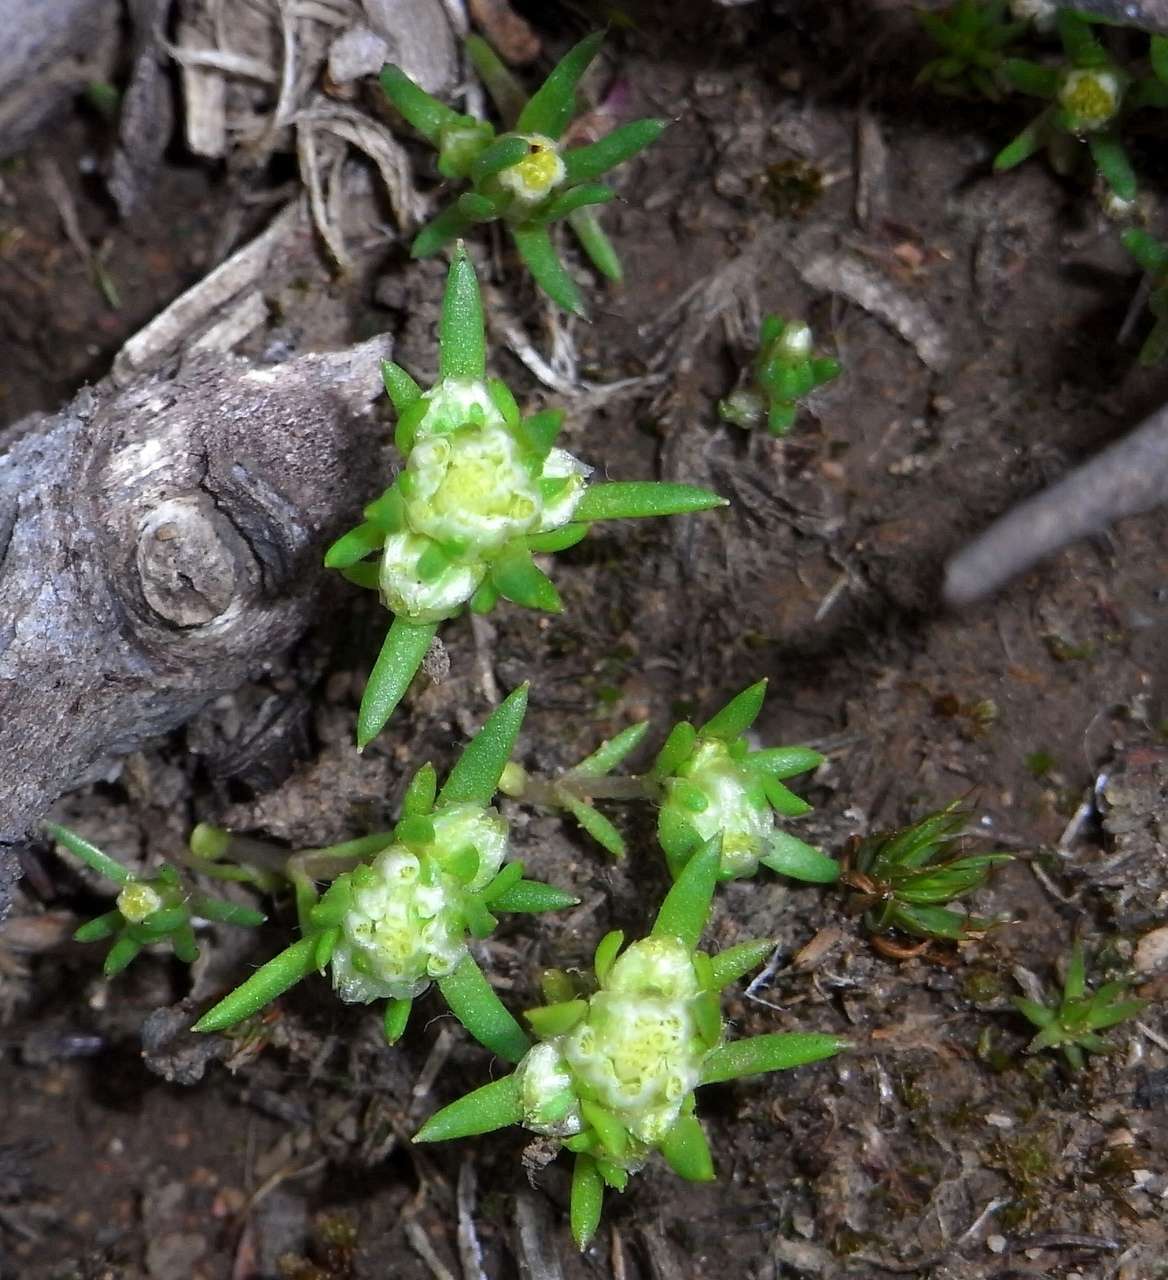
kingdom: Plantae
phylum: Tracheophyta
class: Magnoliopsida
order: Asterales
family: Asteraceae
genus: Siloxerus
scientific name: Siloxerus multiflorus
